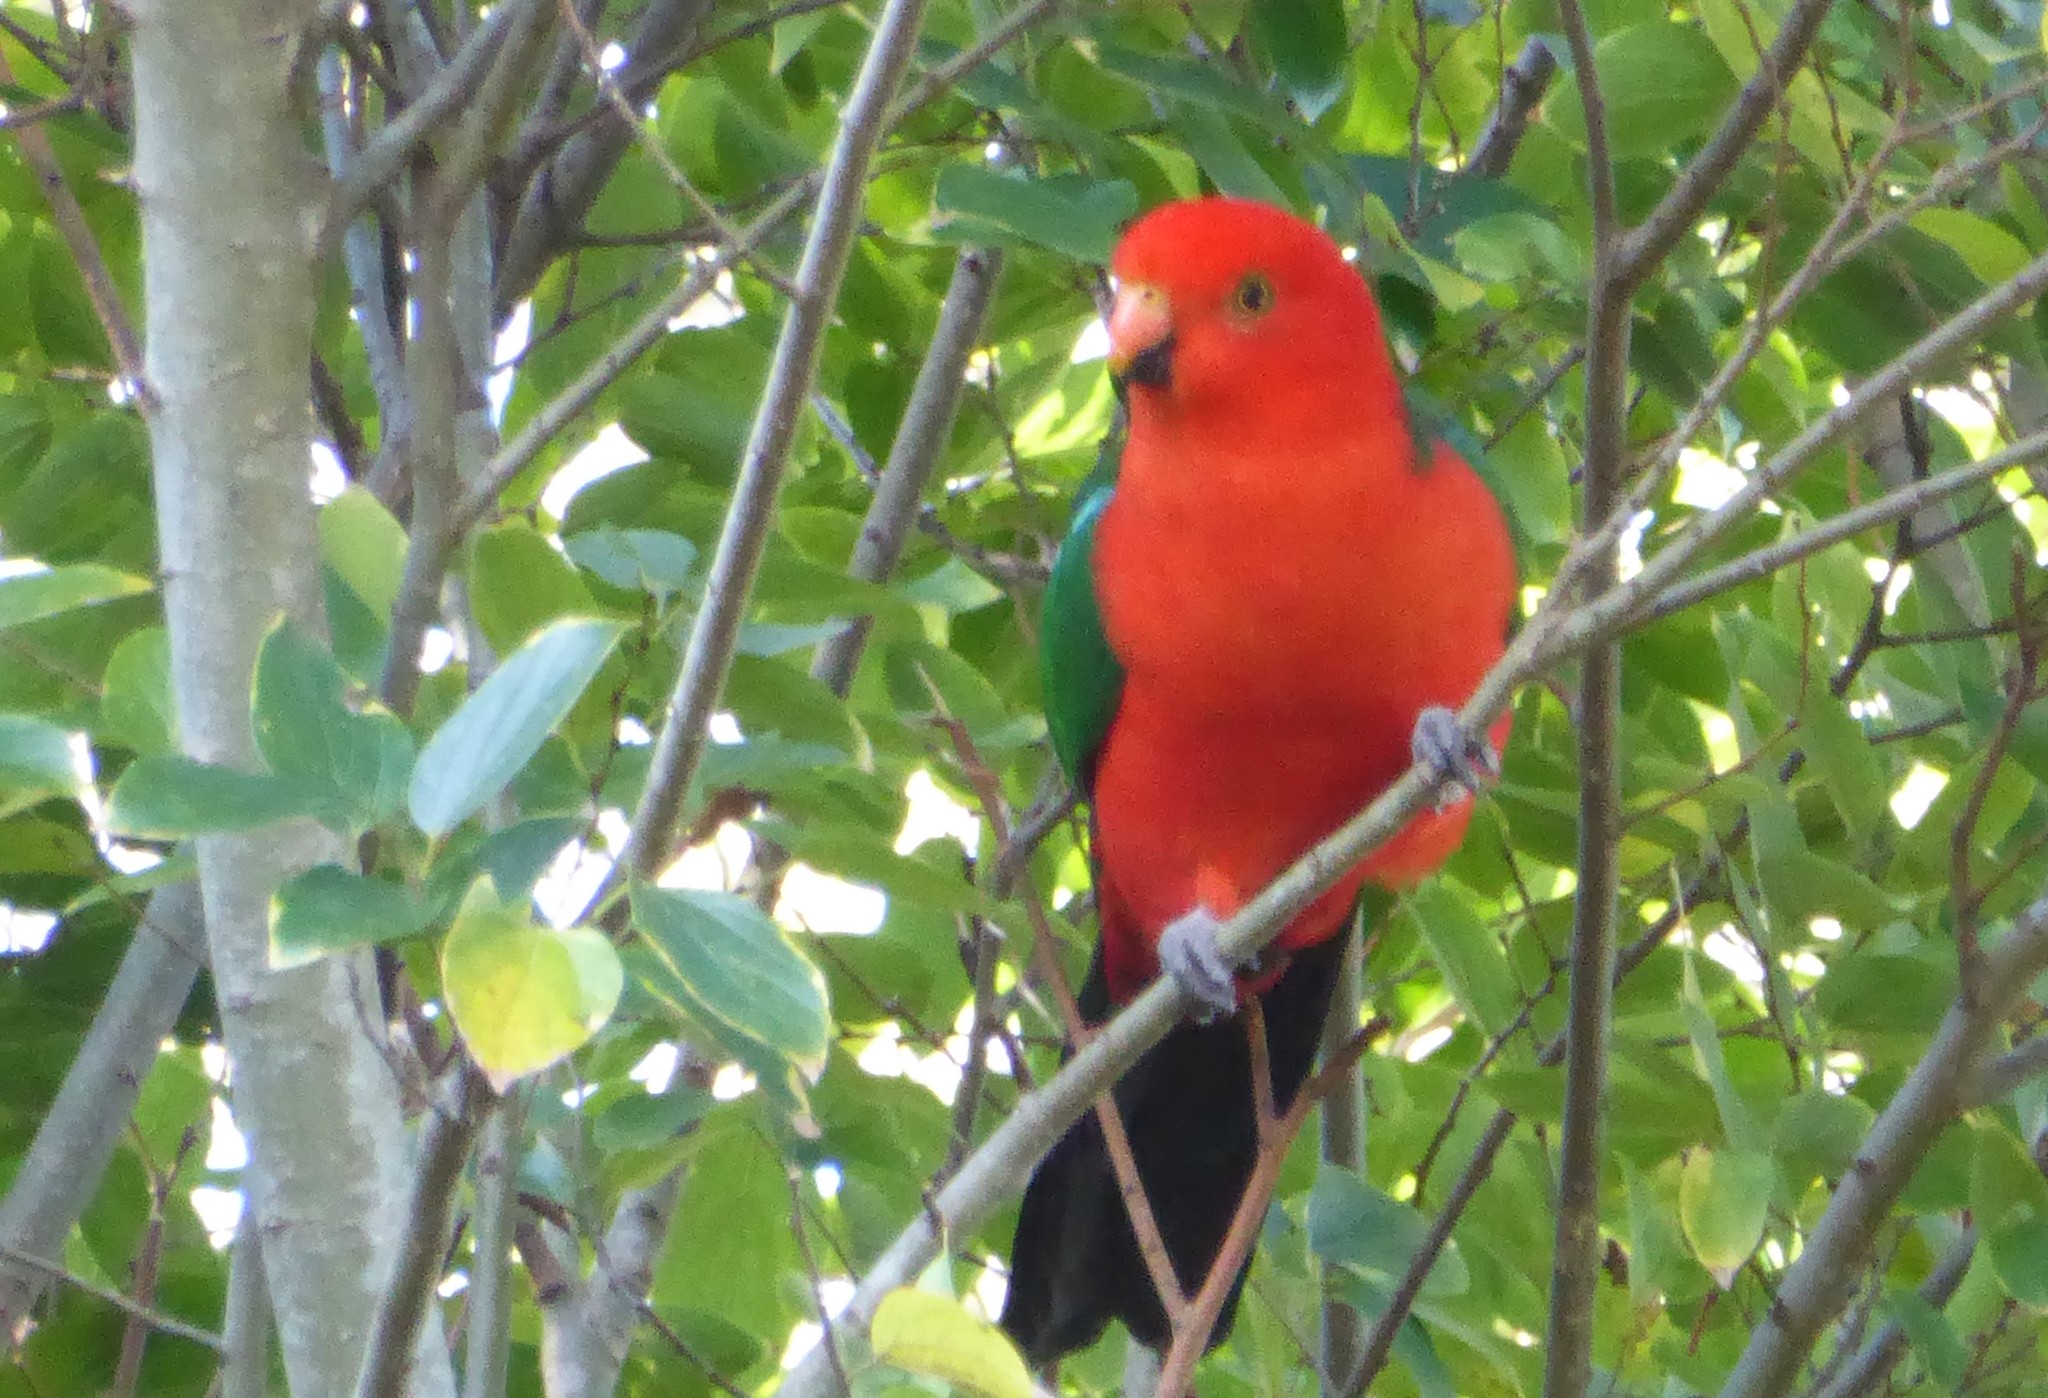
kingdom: Animalia
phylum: Chordata
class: Aves
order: Psittaciformes
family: Psittacidae
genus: Alisterus
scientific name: Alisterus scapularis
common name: Australian king parrot
